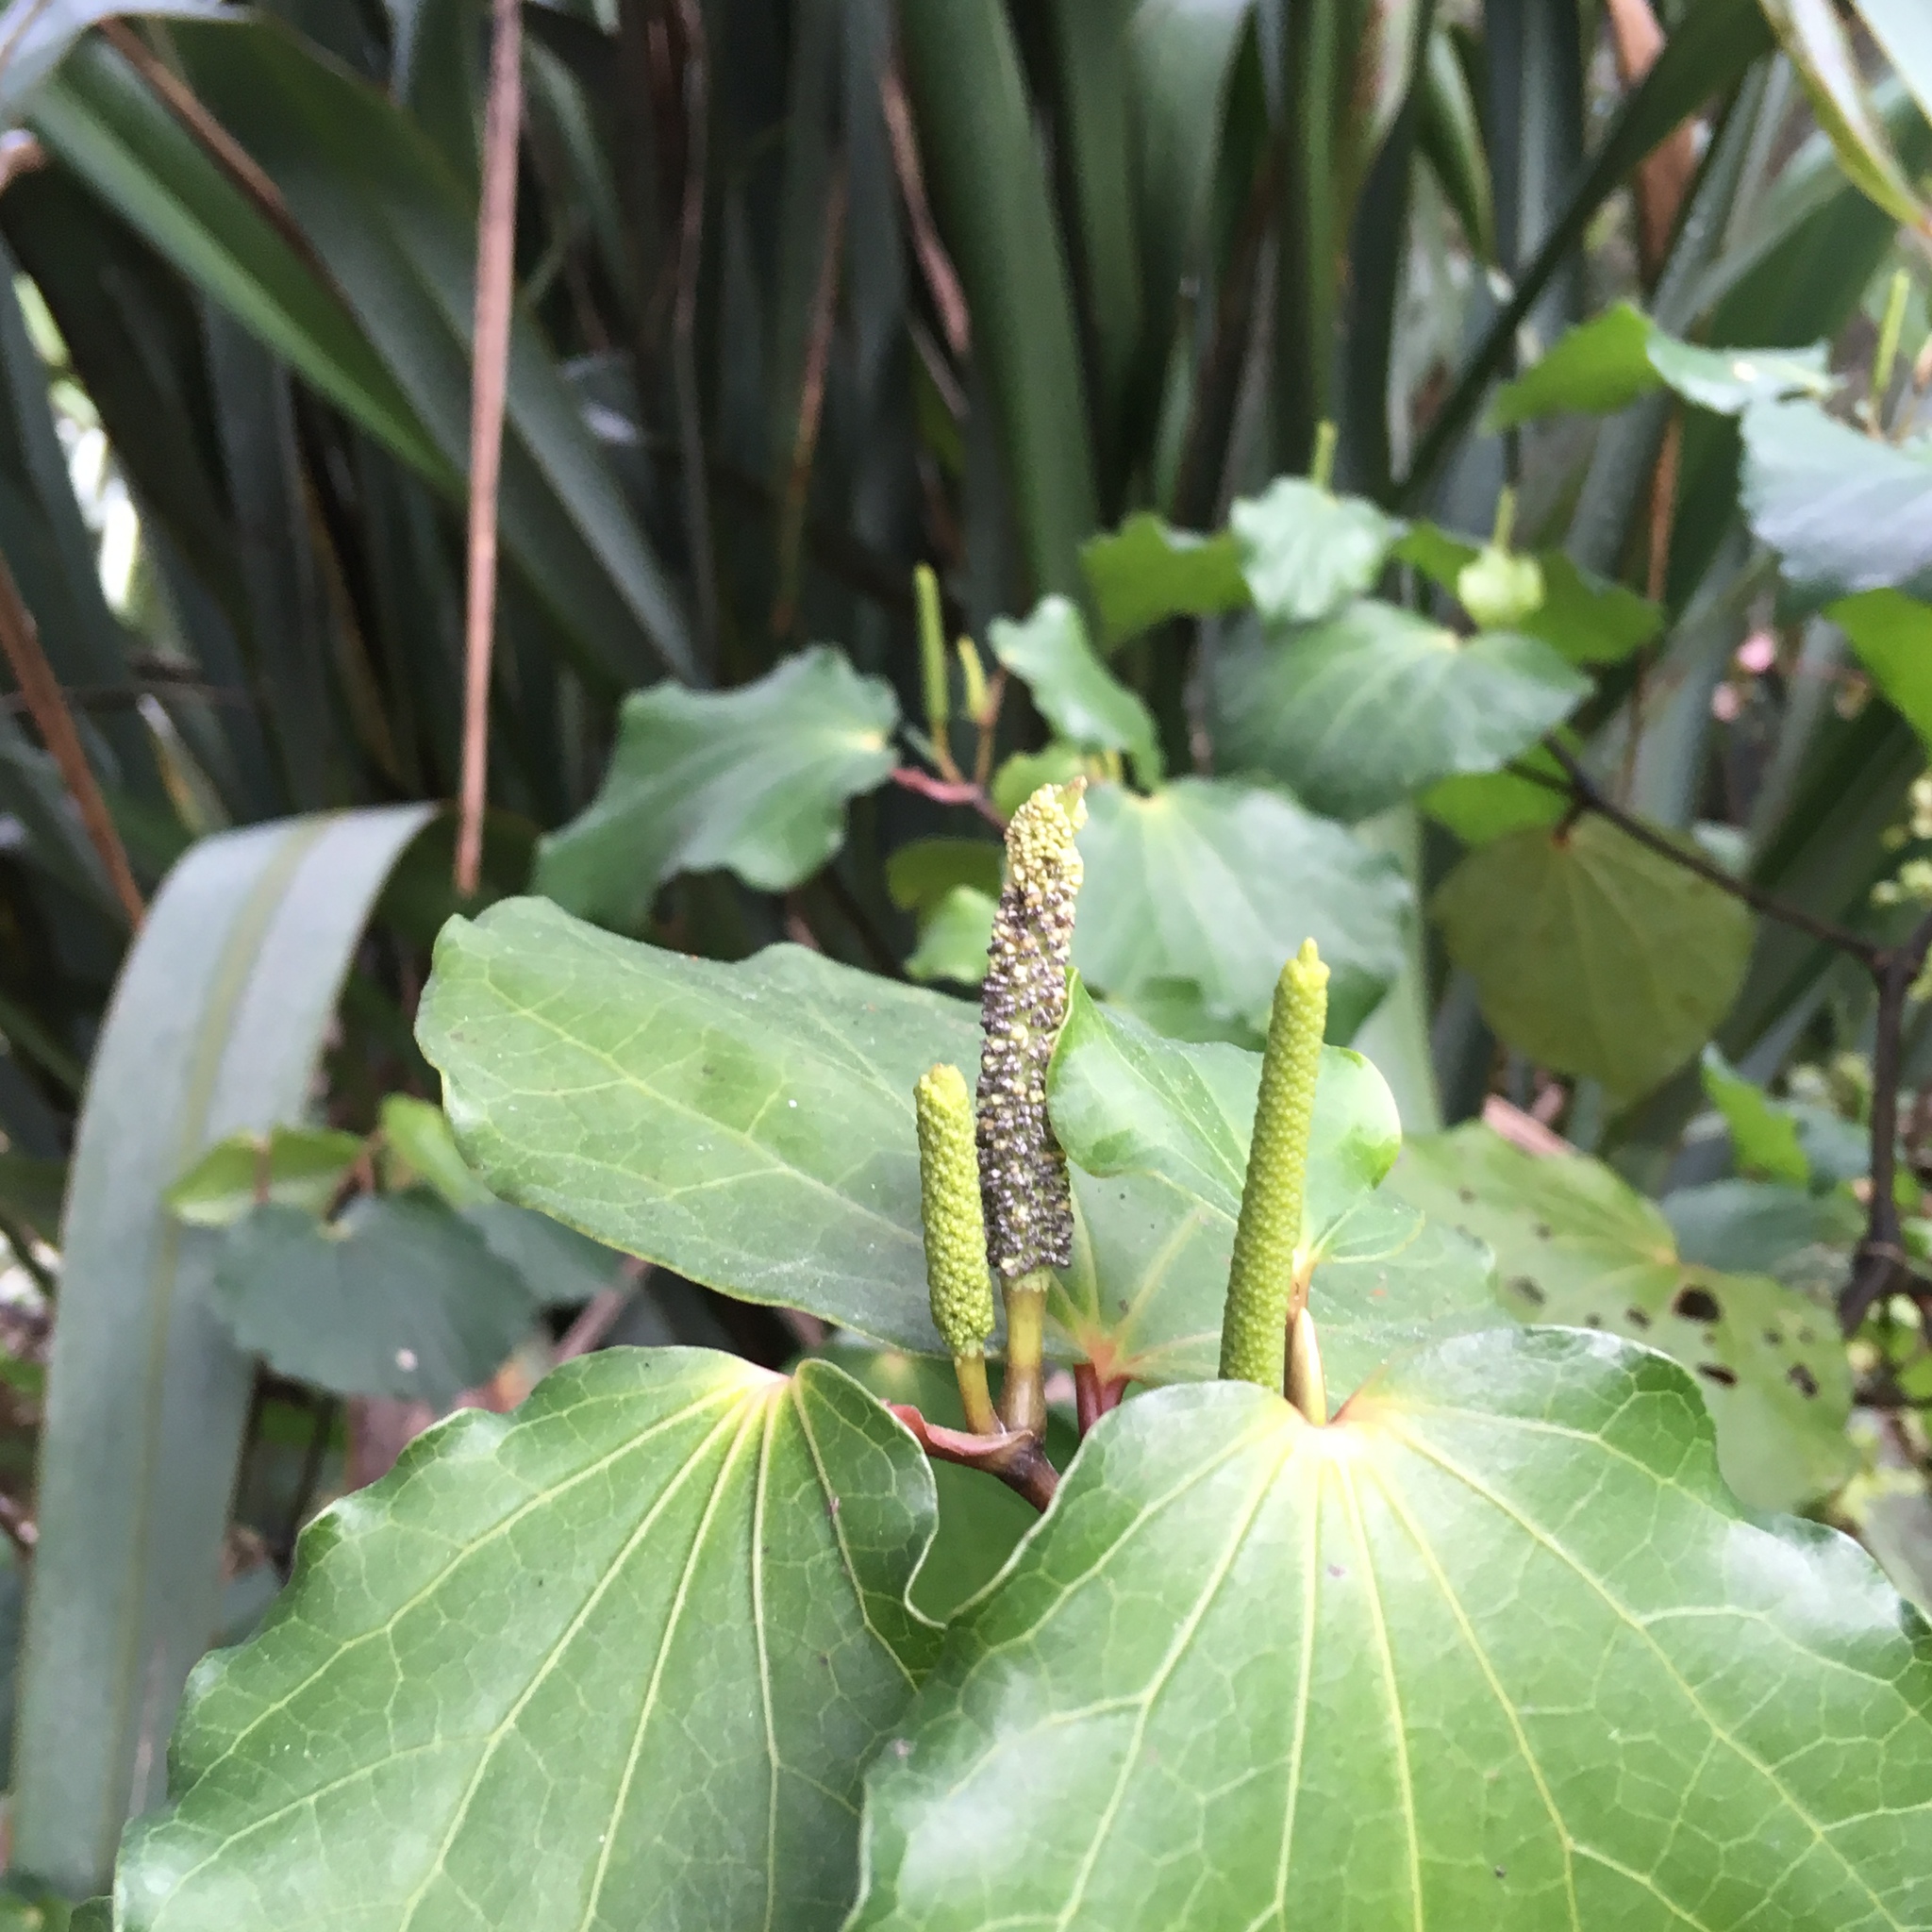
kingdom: Plantae
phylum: Tracheophyta
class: Magnoliopsida
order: Piperales
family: Piperaceae
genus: Macropiper
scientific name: Macropiper excelsum
